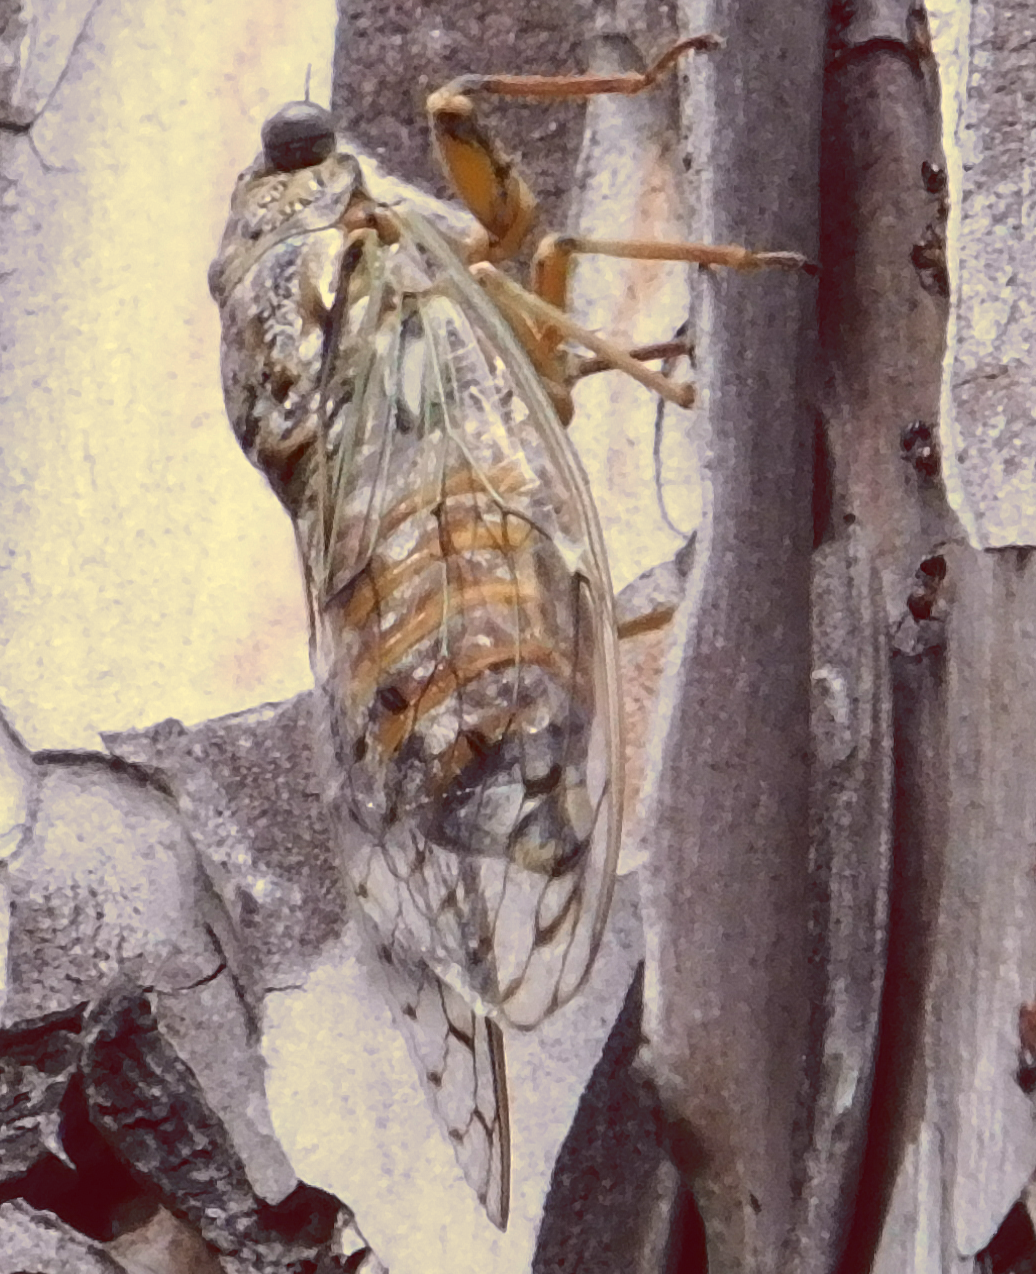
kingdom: Animalia
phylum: Arthropoda
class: Insecta
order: Hemiptera
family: Cicadidae
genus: Cicada
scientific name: Cicada orni
